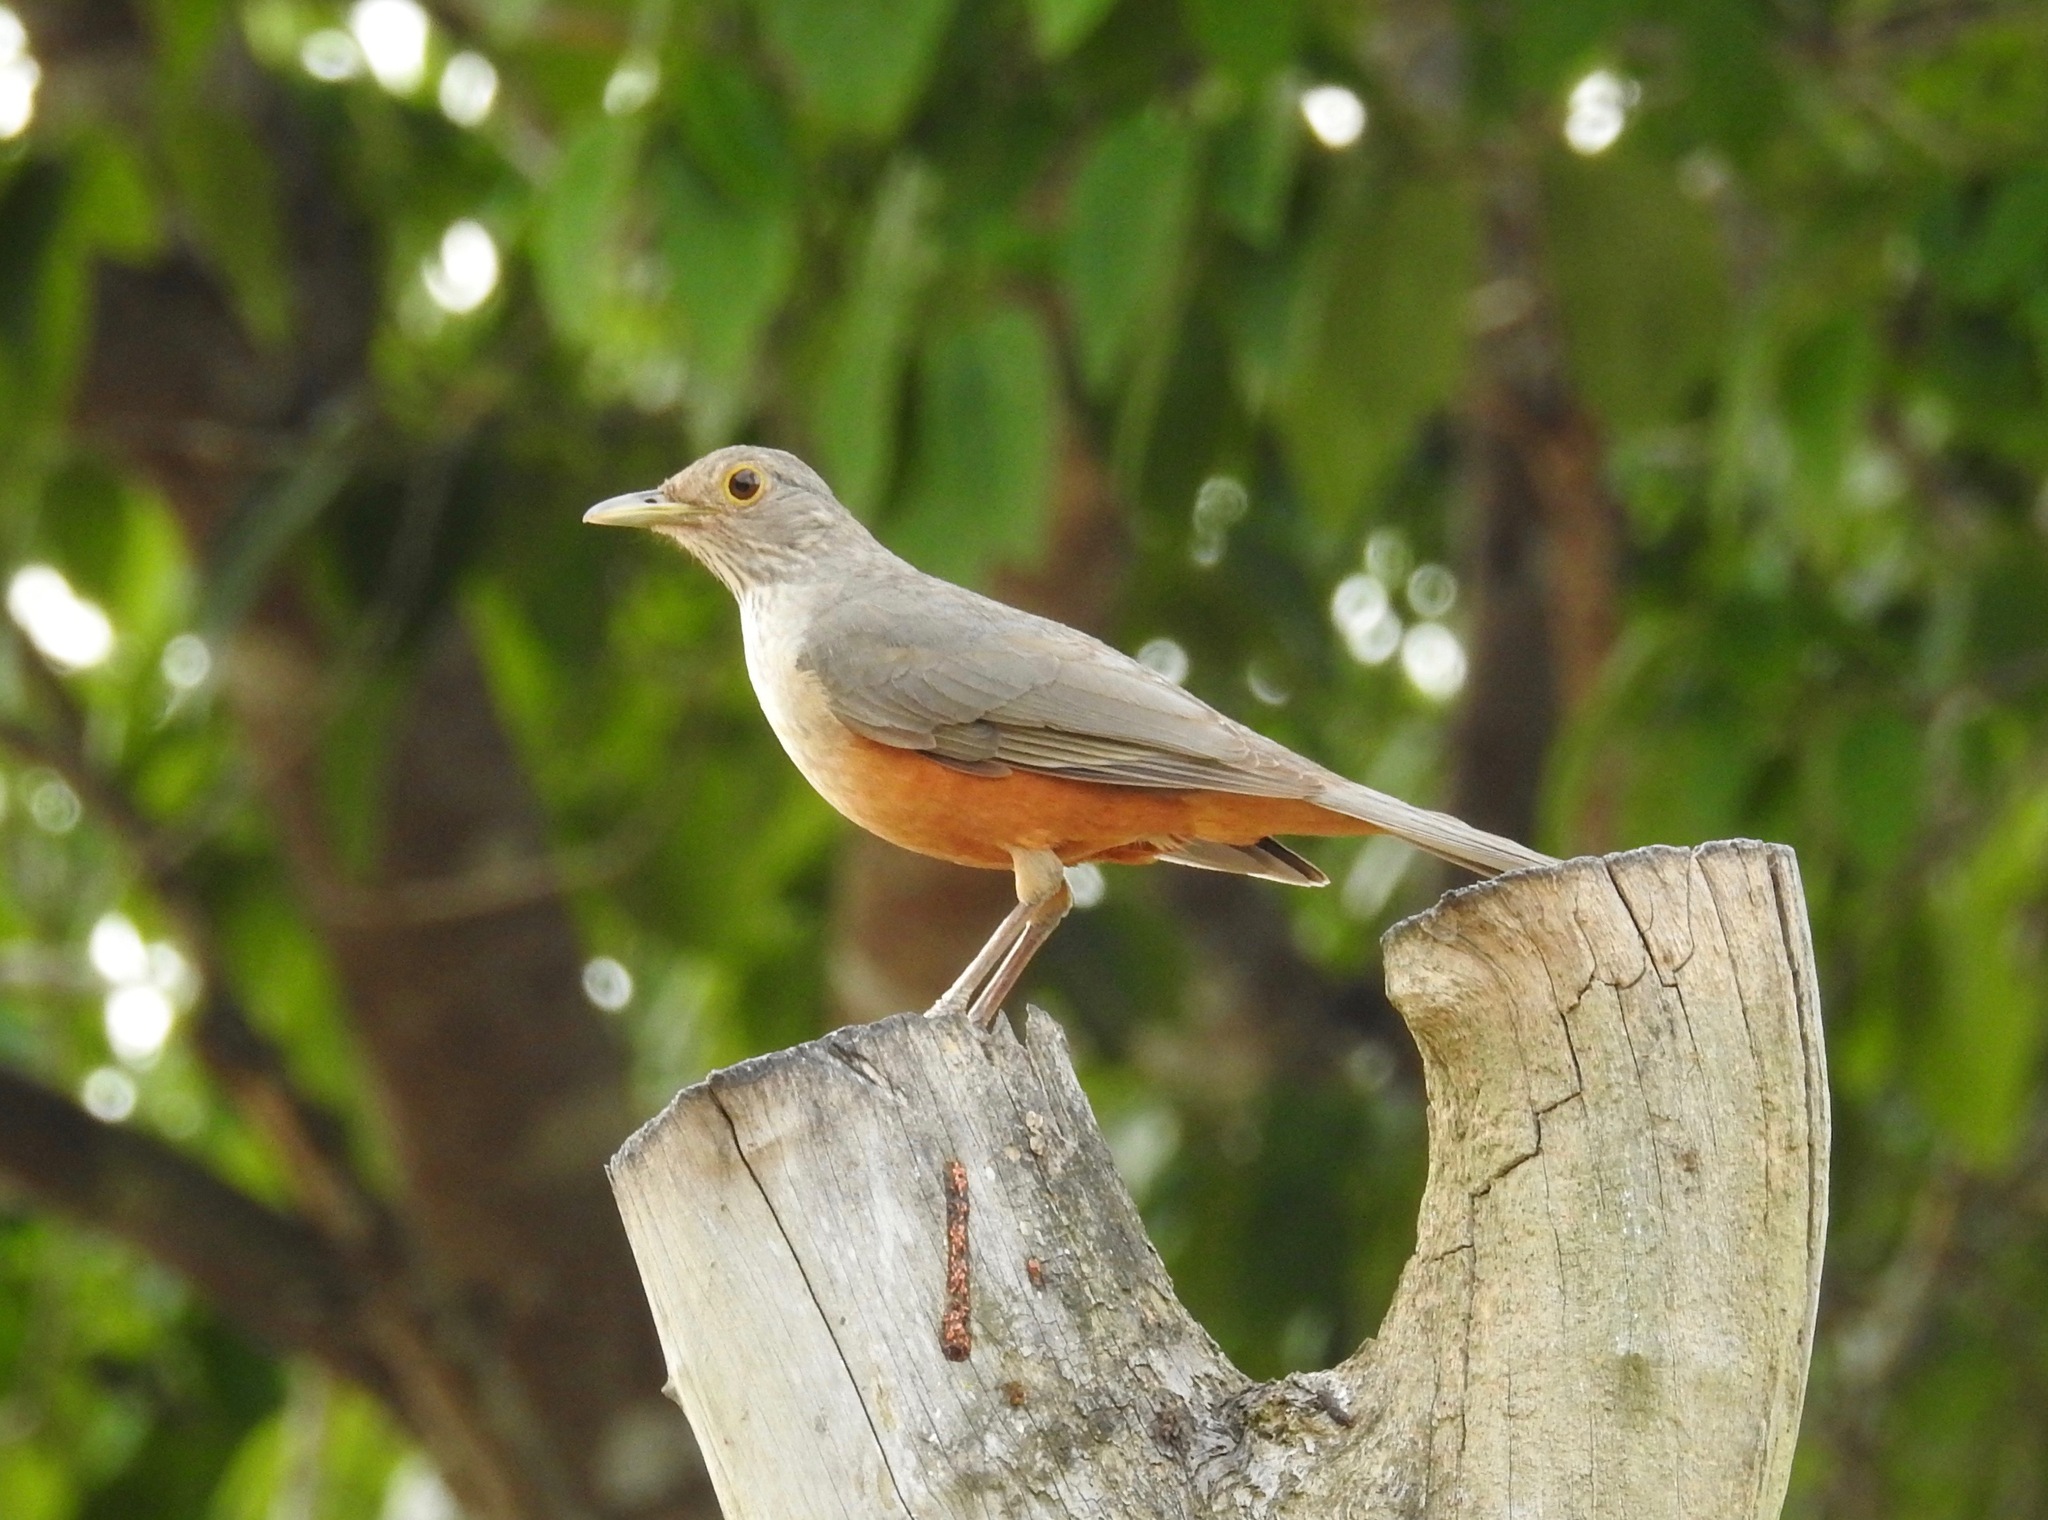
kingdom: Animalia
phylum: Chordata
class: Aves
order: Passeriformes
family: Turdidae
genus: Turdus
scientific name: Turdus rufiventris
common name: Rufous-bellied thrush
